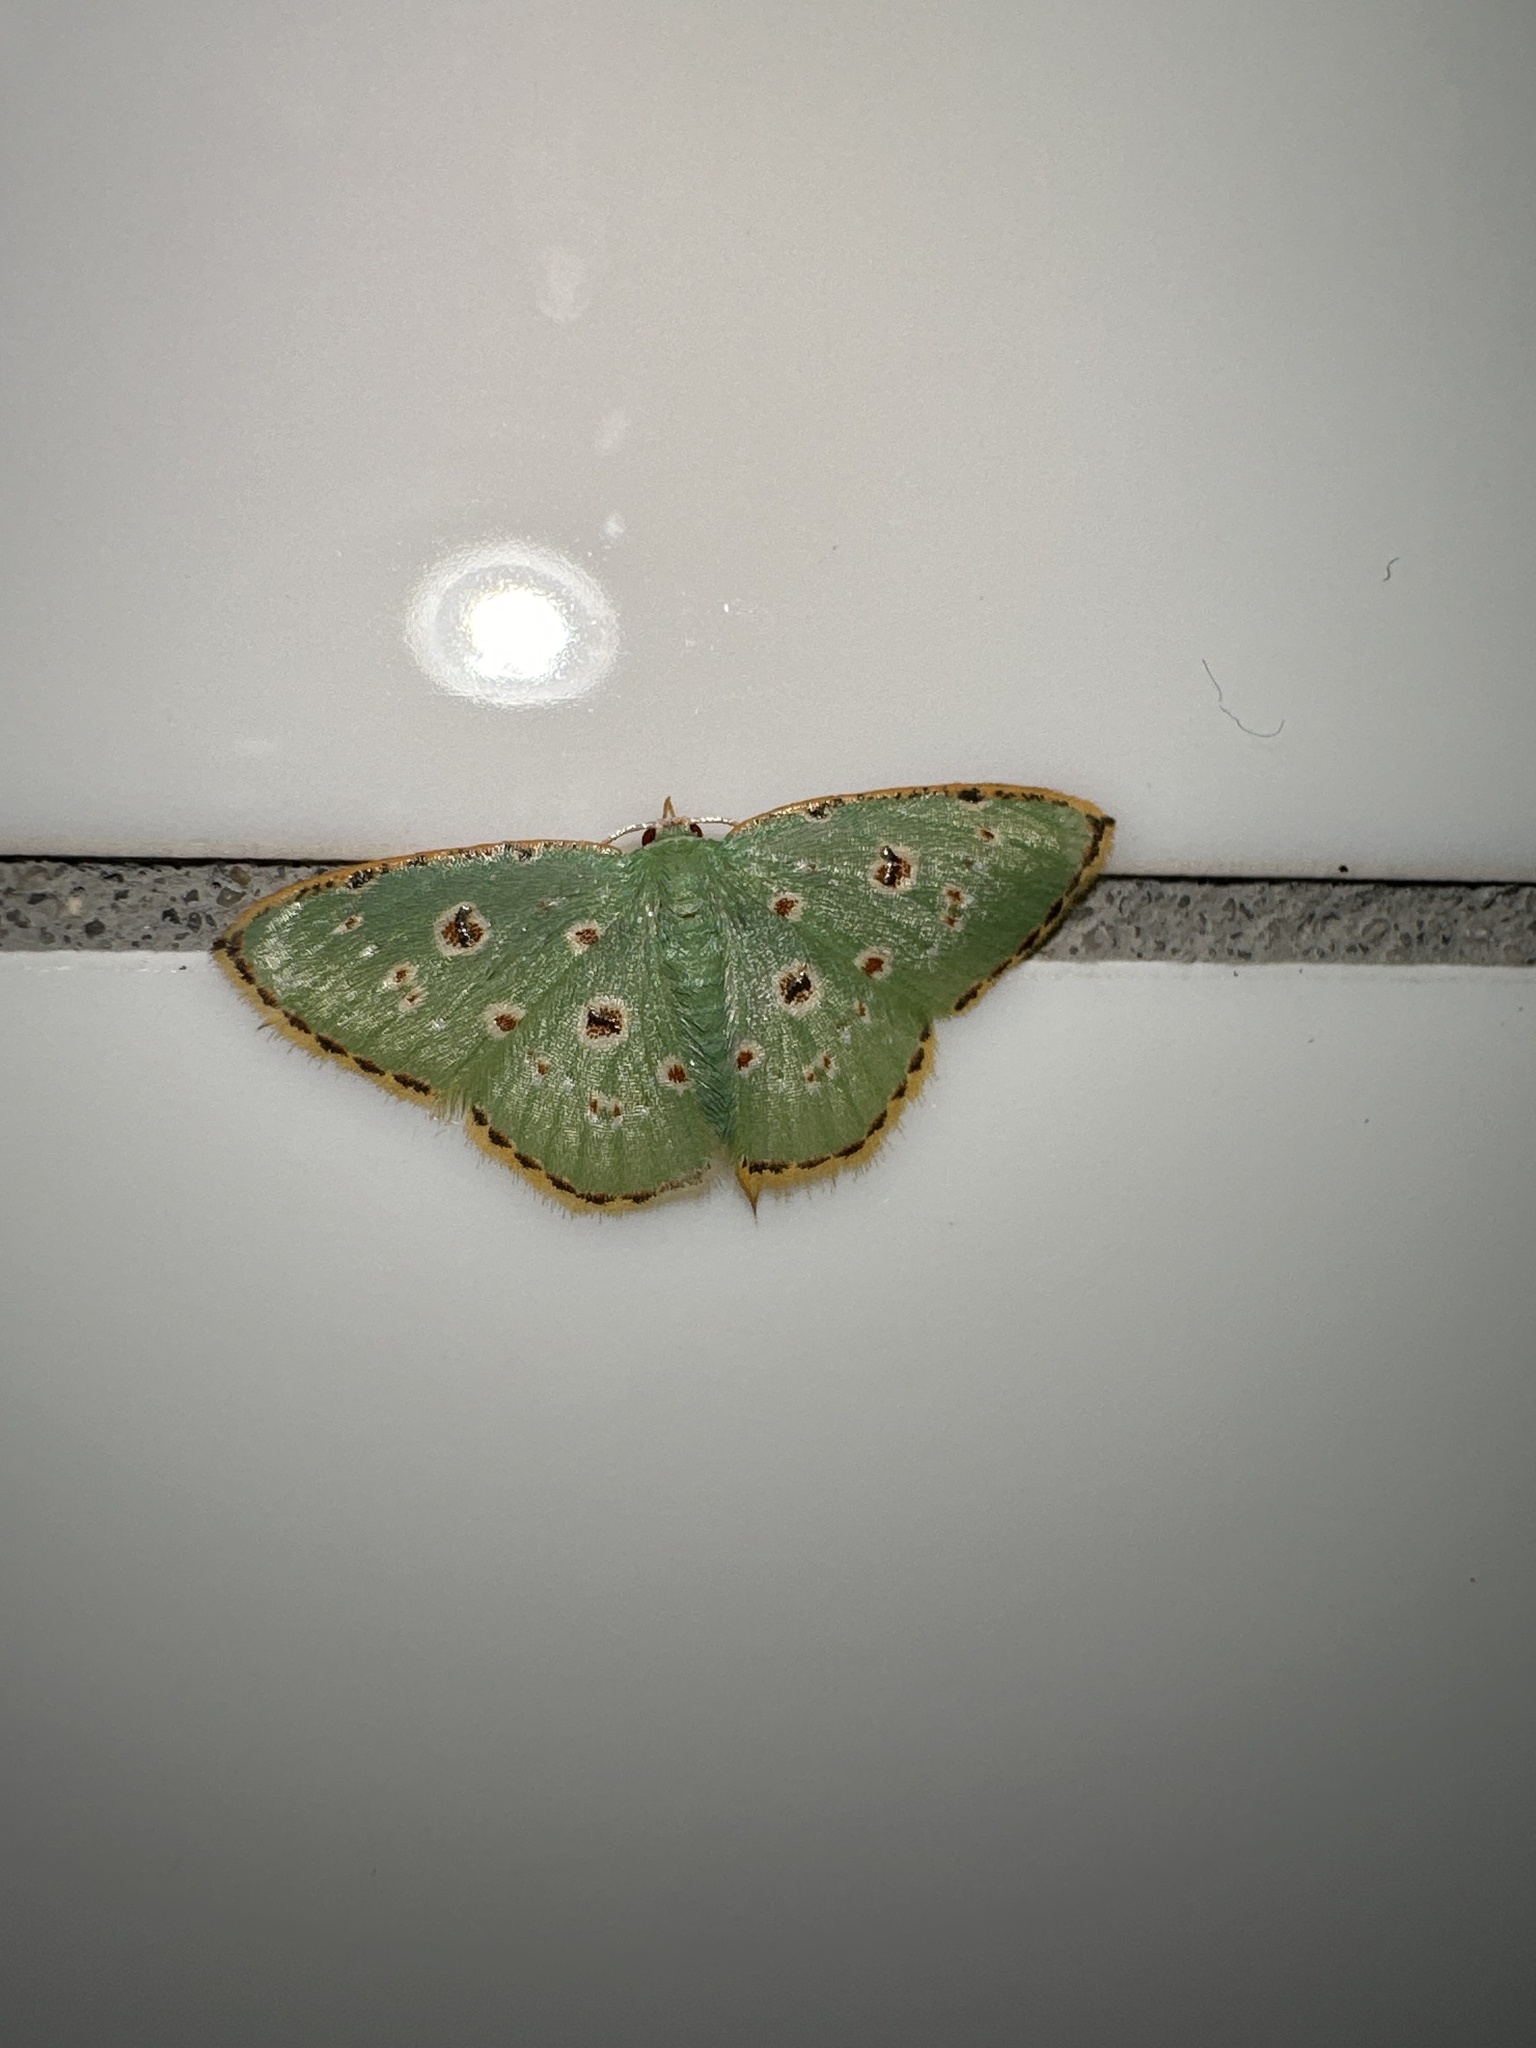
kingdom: Animalia
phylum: Arthropoda
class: Insecta
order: Lepidoptera
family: Geometridae
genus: Comostola
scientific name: Comostola laesaria
